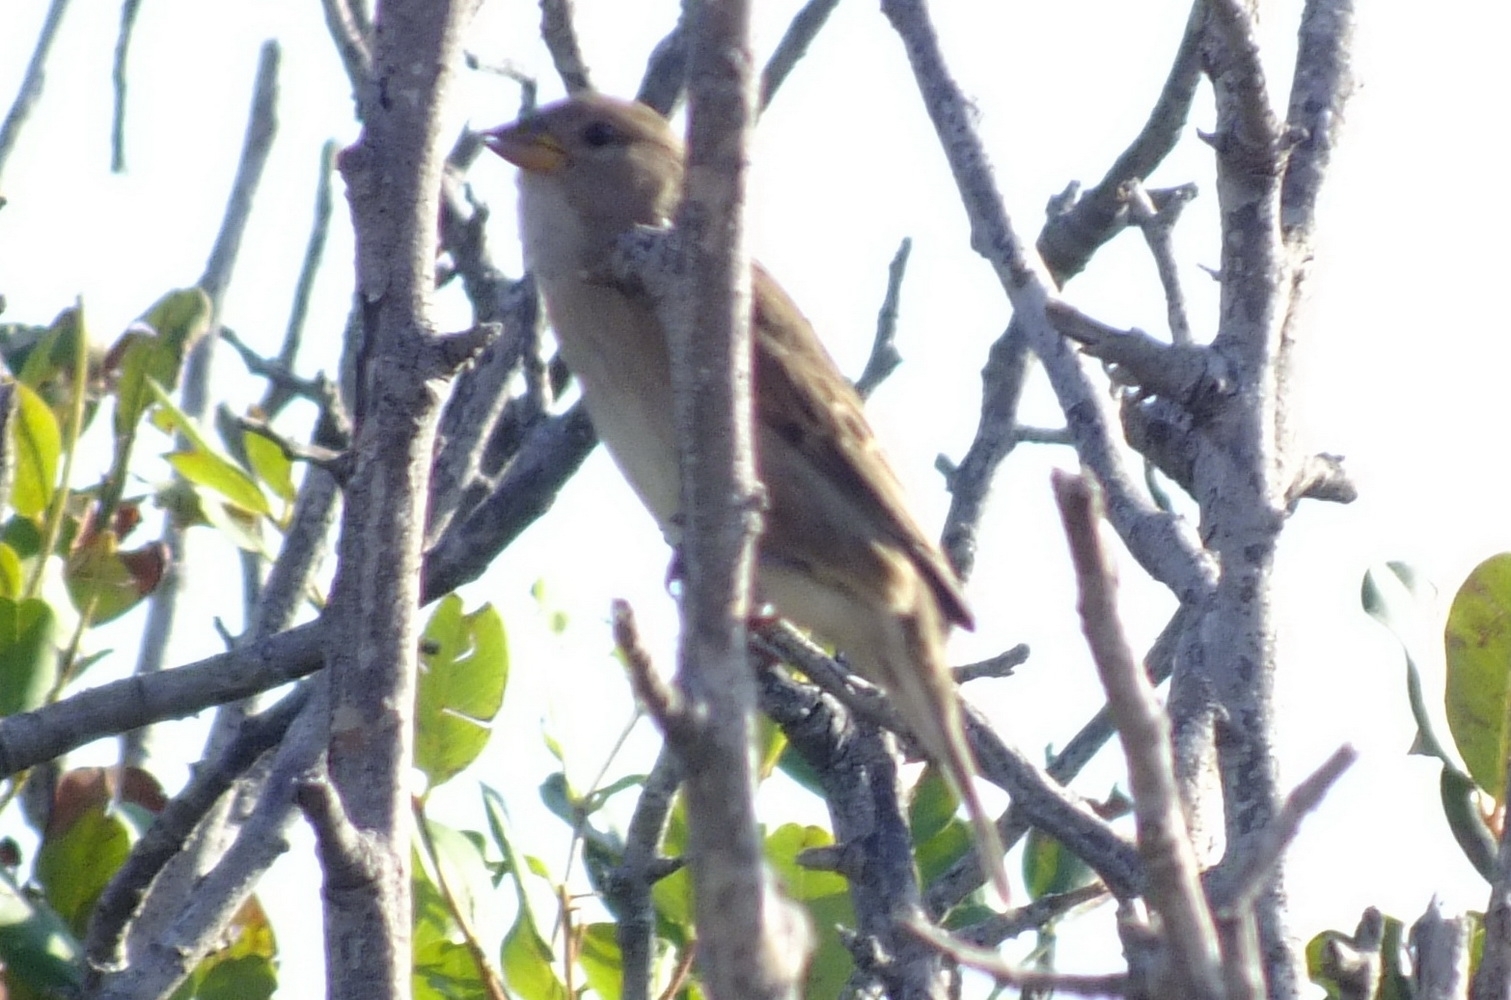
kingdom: Animalia
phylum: Chordata
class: Aves
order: Passeriformes
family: Passeridae
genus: Passer
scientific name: Passer italiae
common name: Italian sparrow
